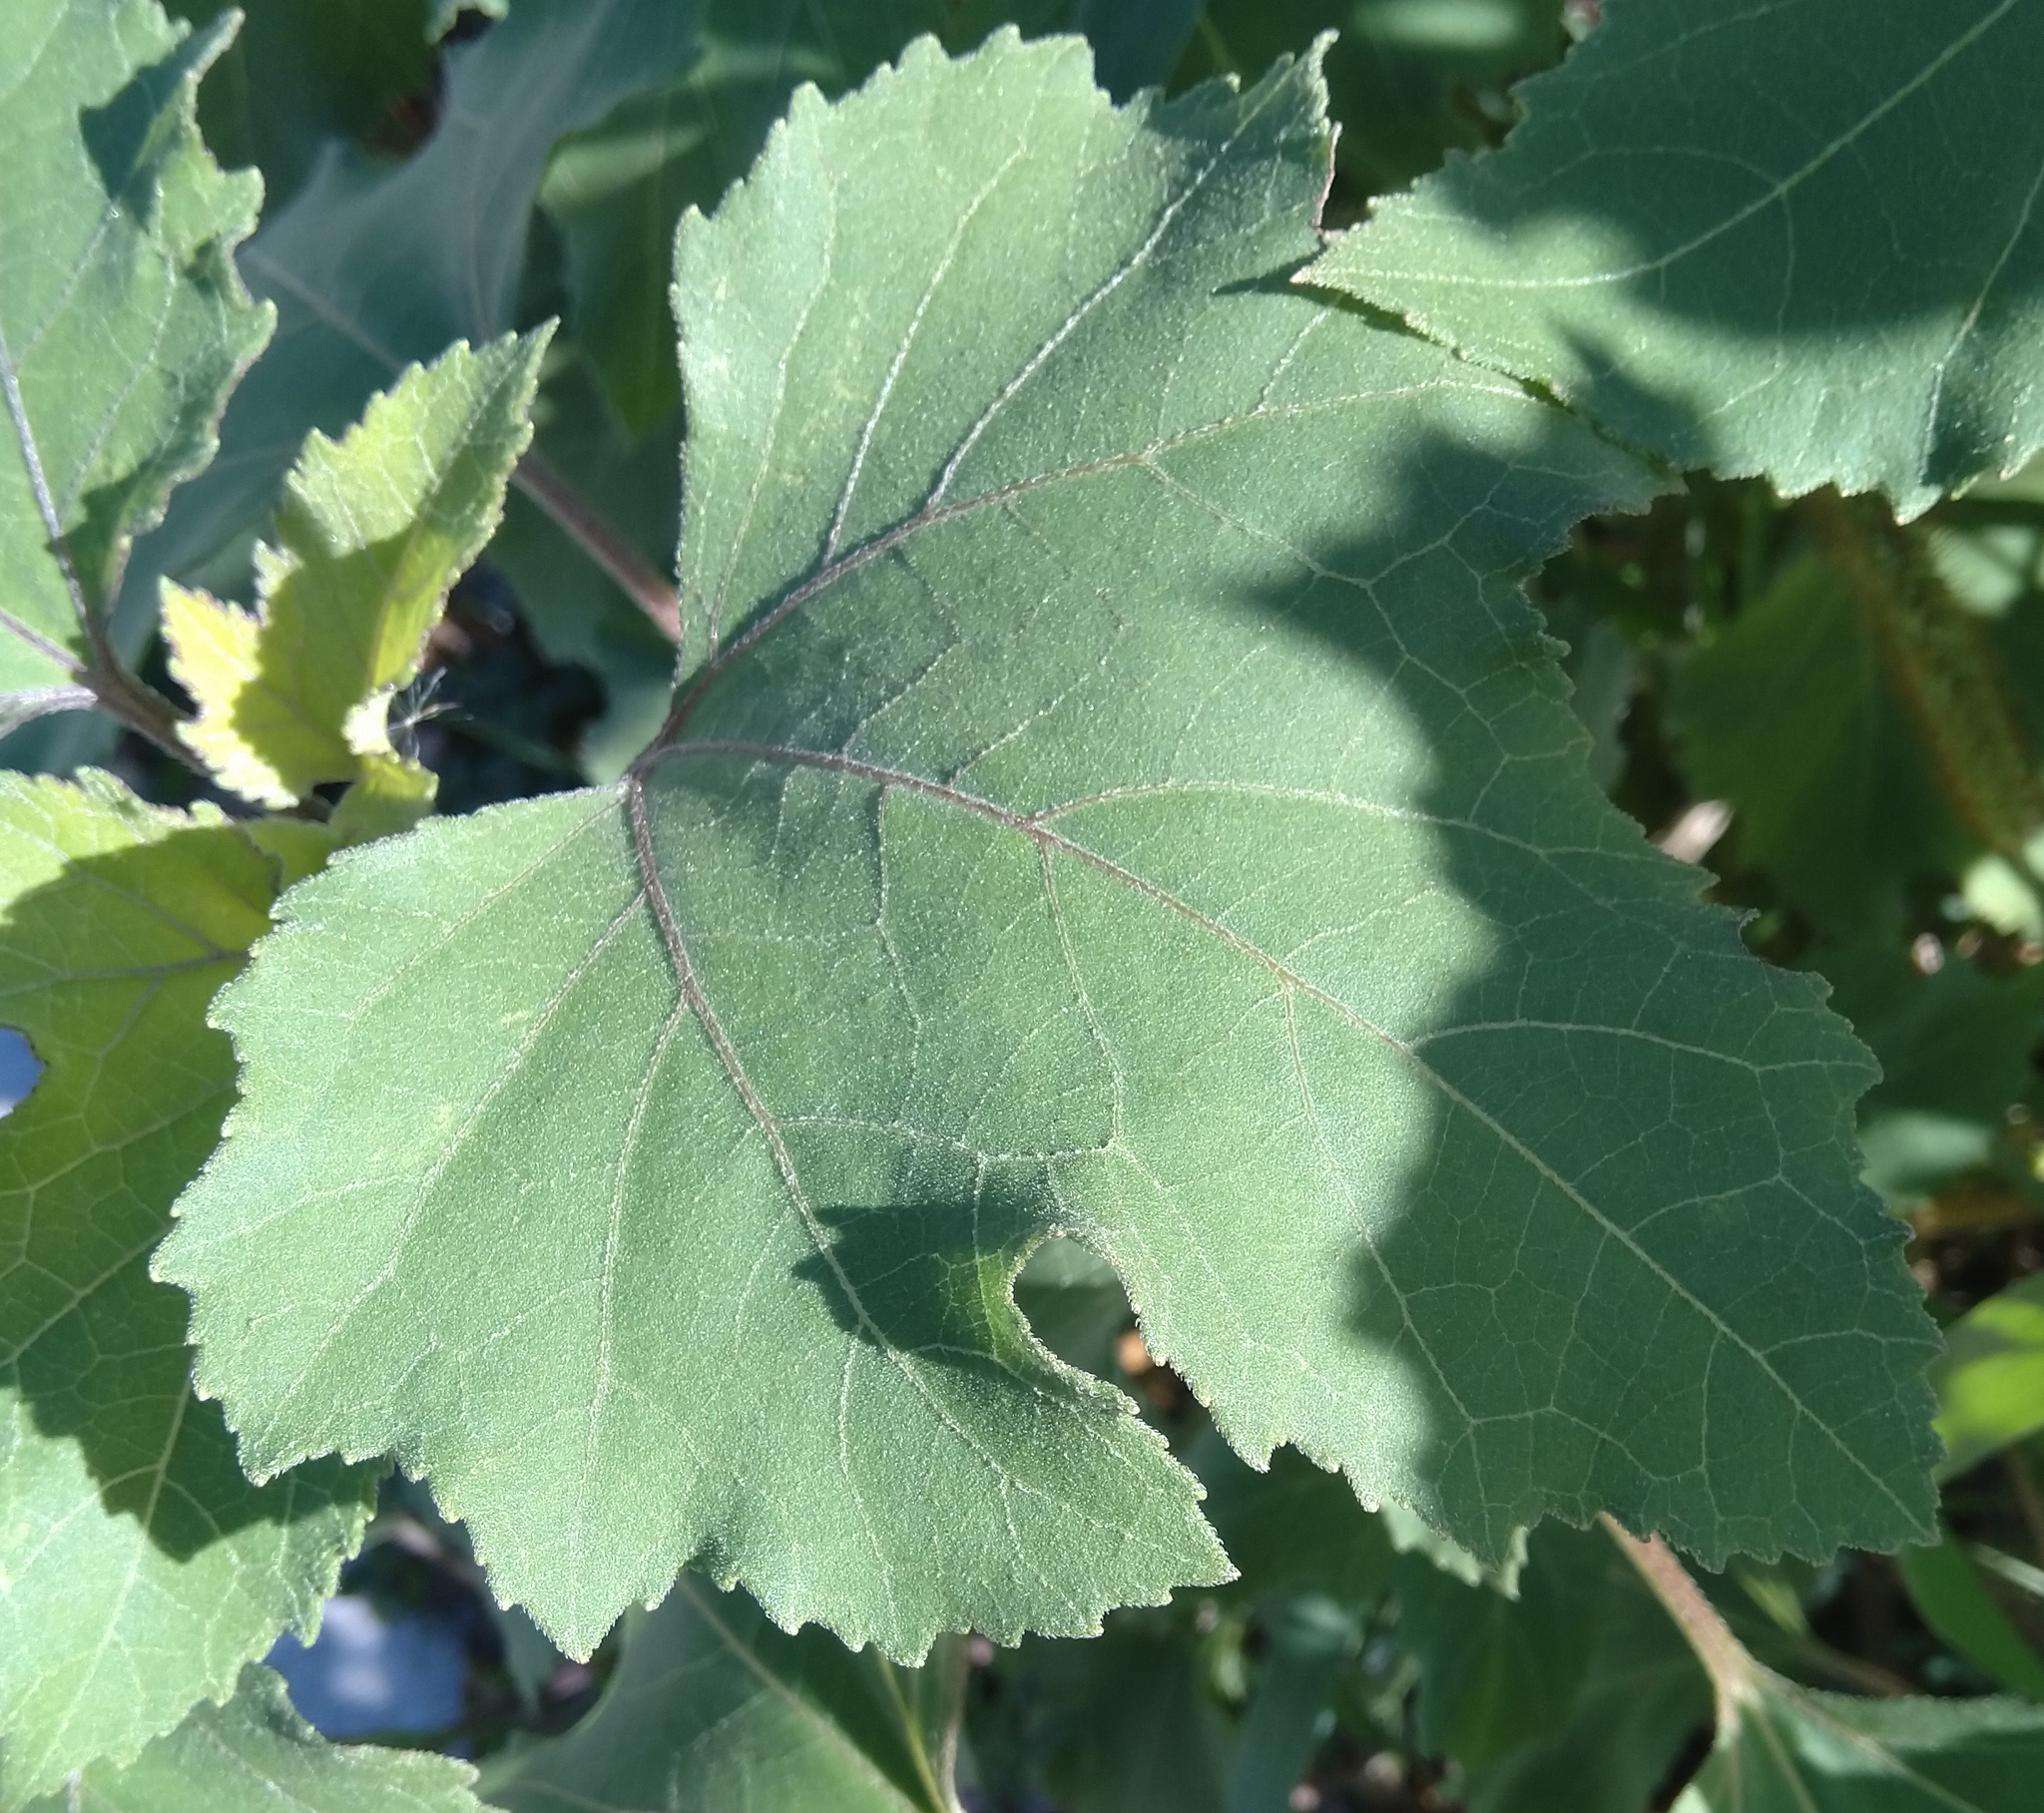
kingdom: Plantae
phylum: Tracheophyta
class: Magnoliopsida
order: Asterales
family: Asteraceae
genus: Xanthium
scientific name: Xanthium strumarium
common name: Rough cocklebur
